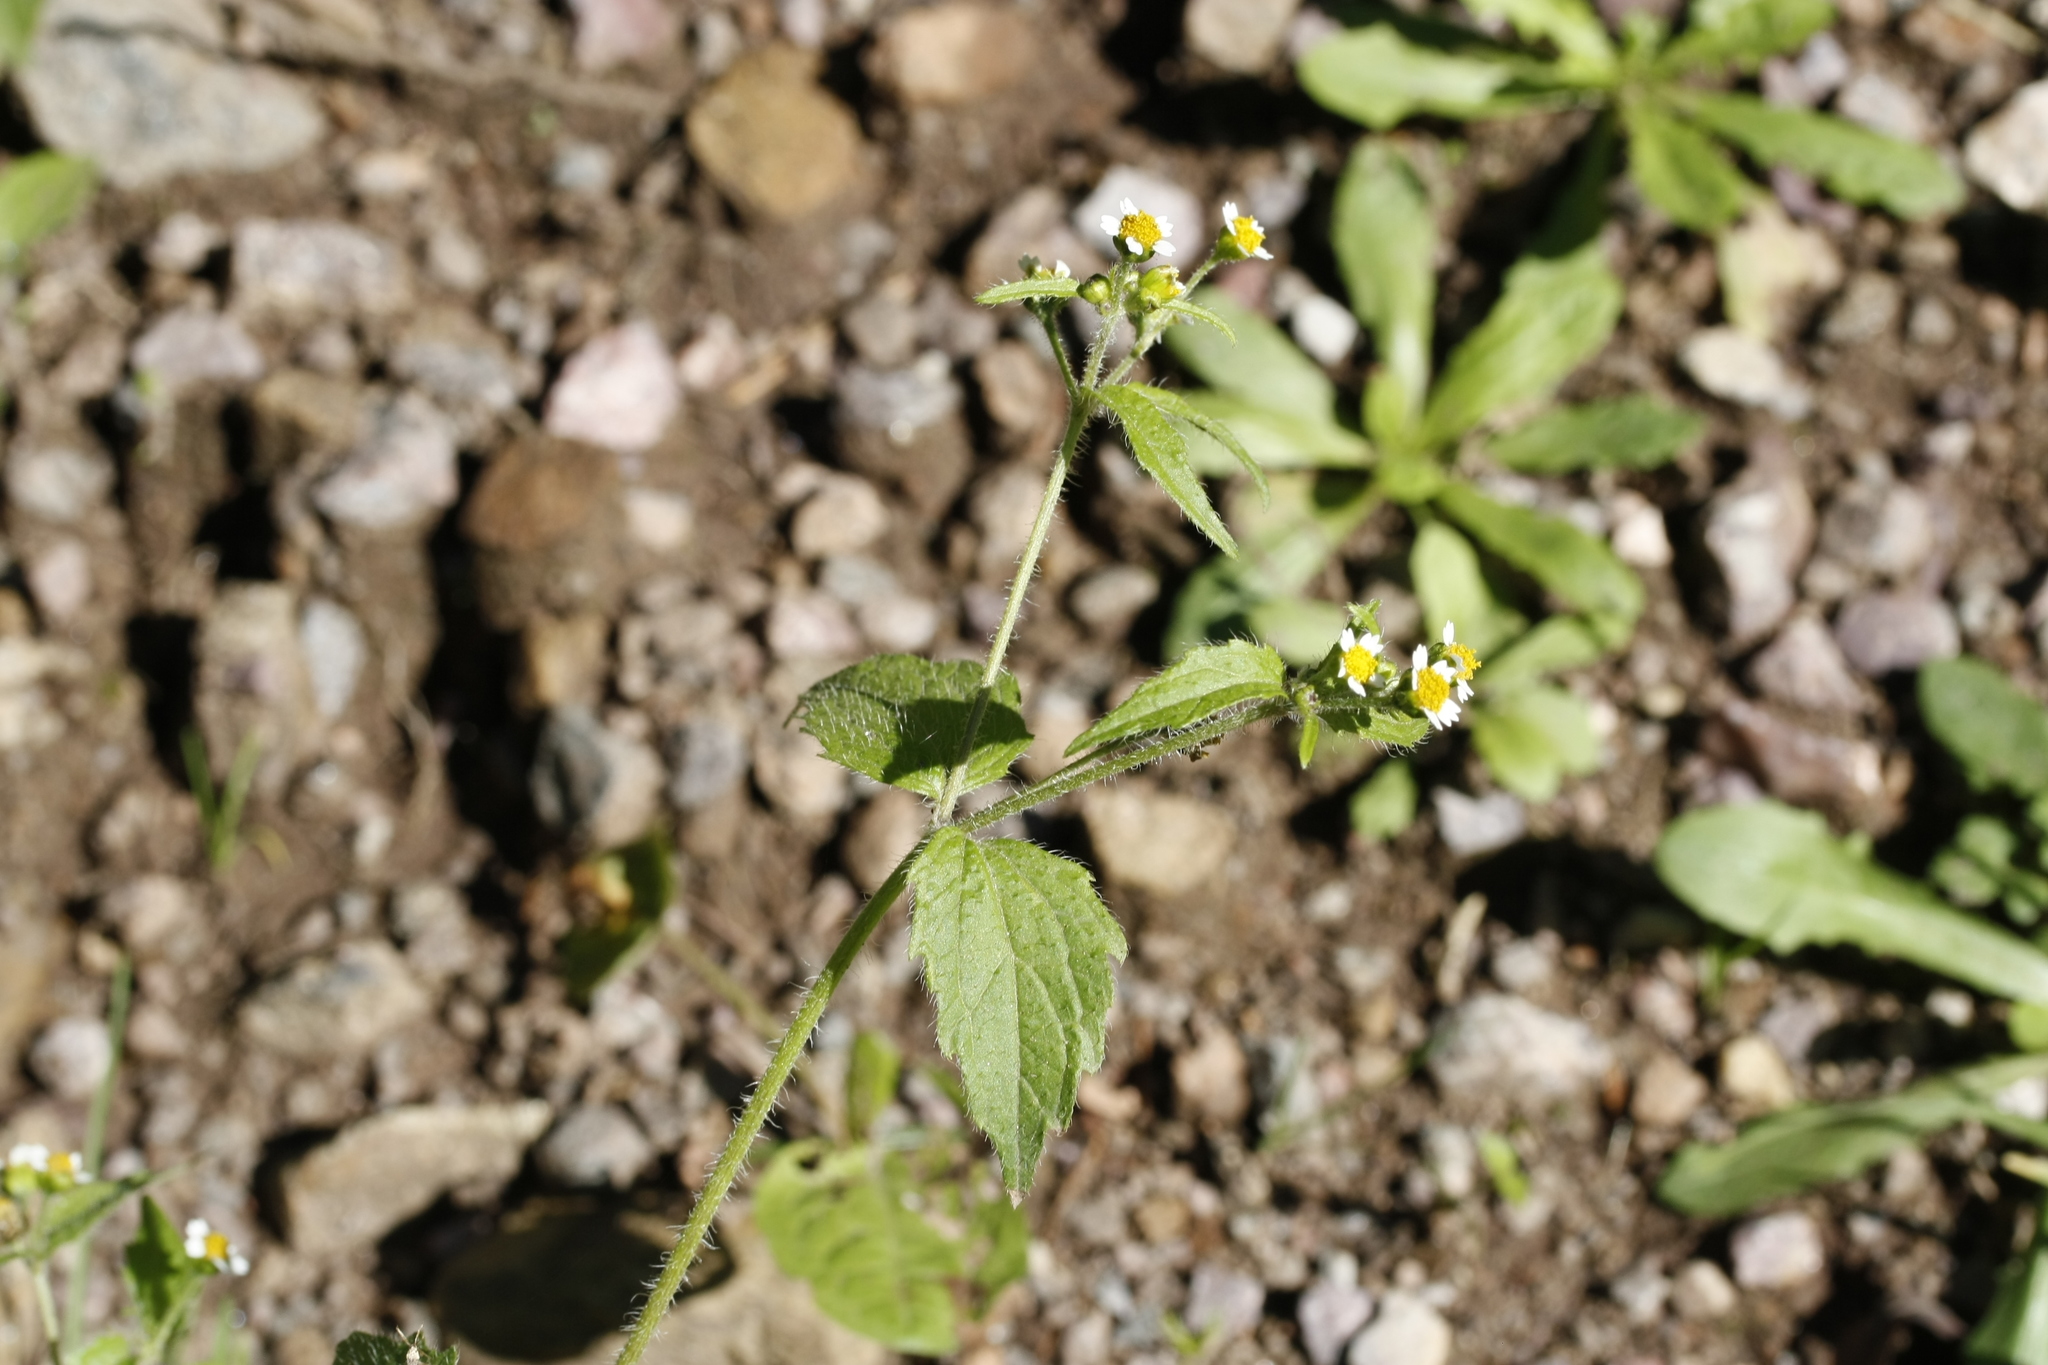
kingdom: Plantae
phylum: Tracheophyta
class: Magnoliopsida
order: Asterales
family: Asteraceae
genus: Galinsoga
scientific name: Galinsoga quadriradiata
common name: Shaggy soldier
